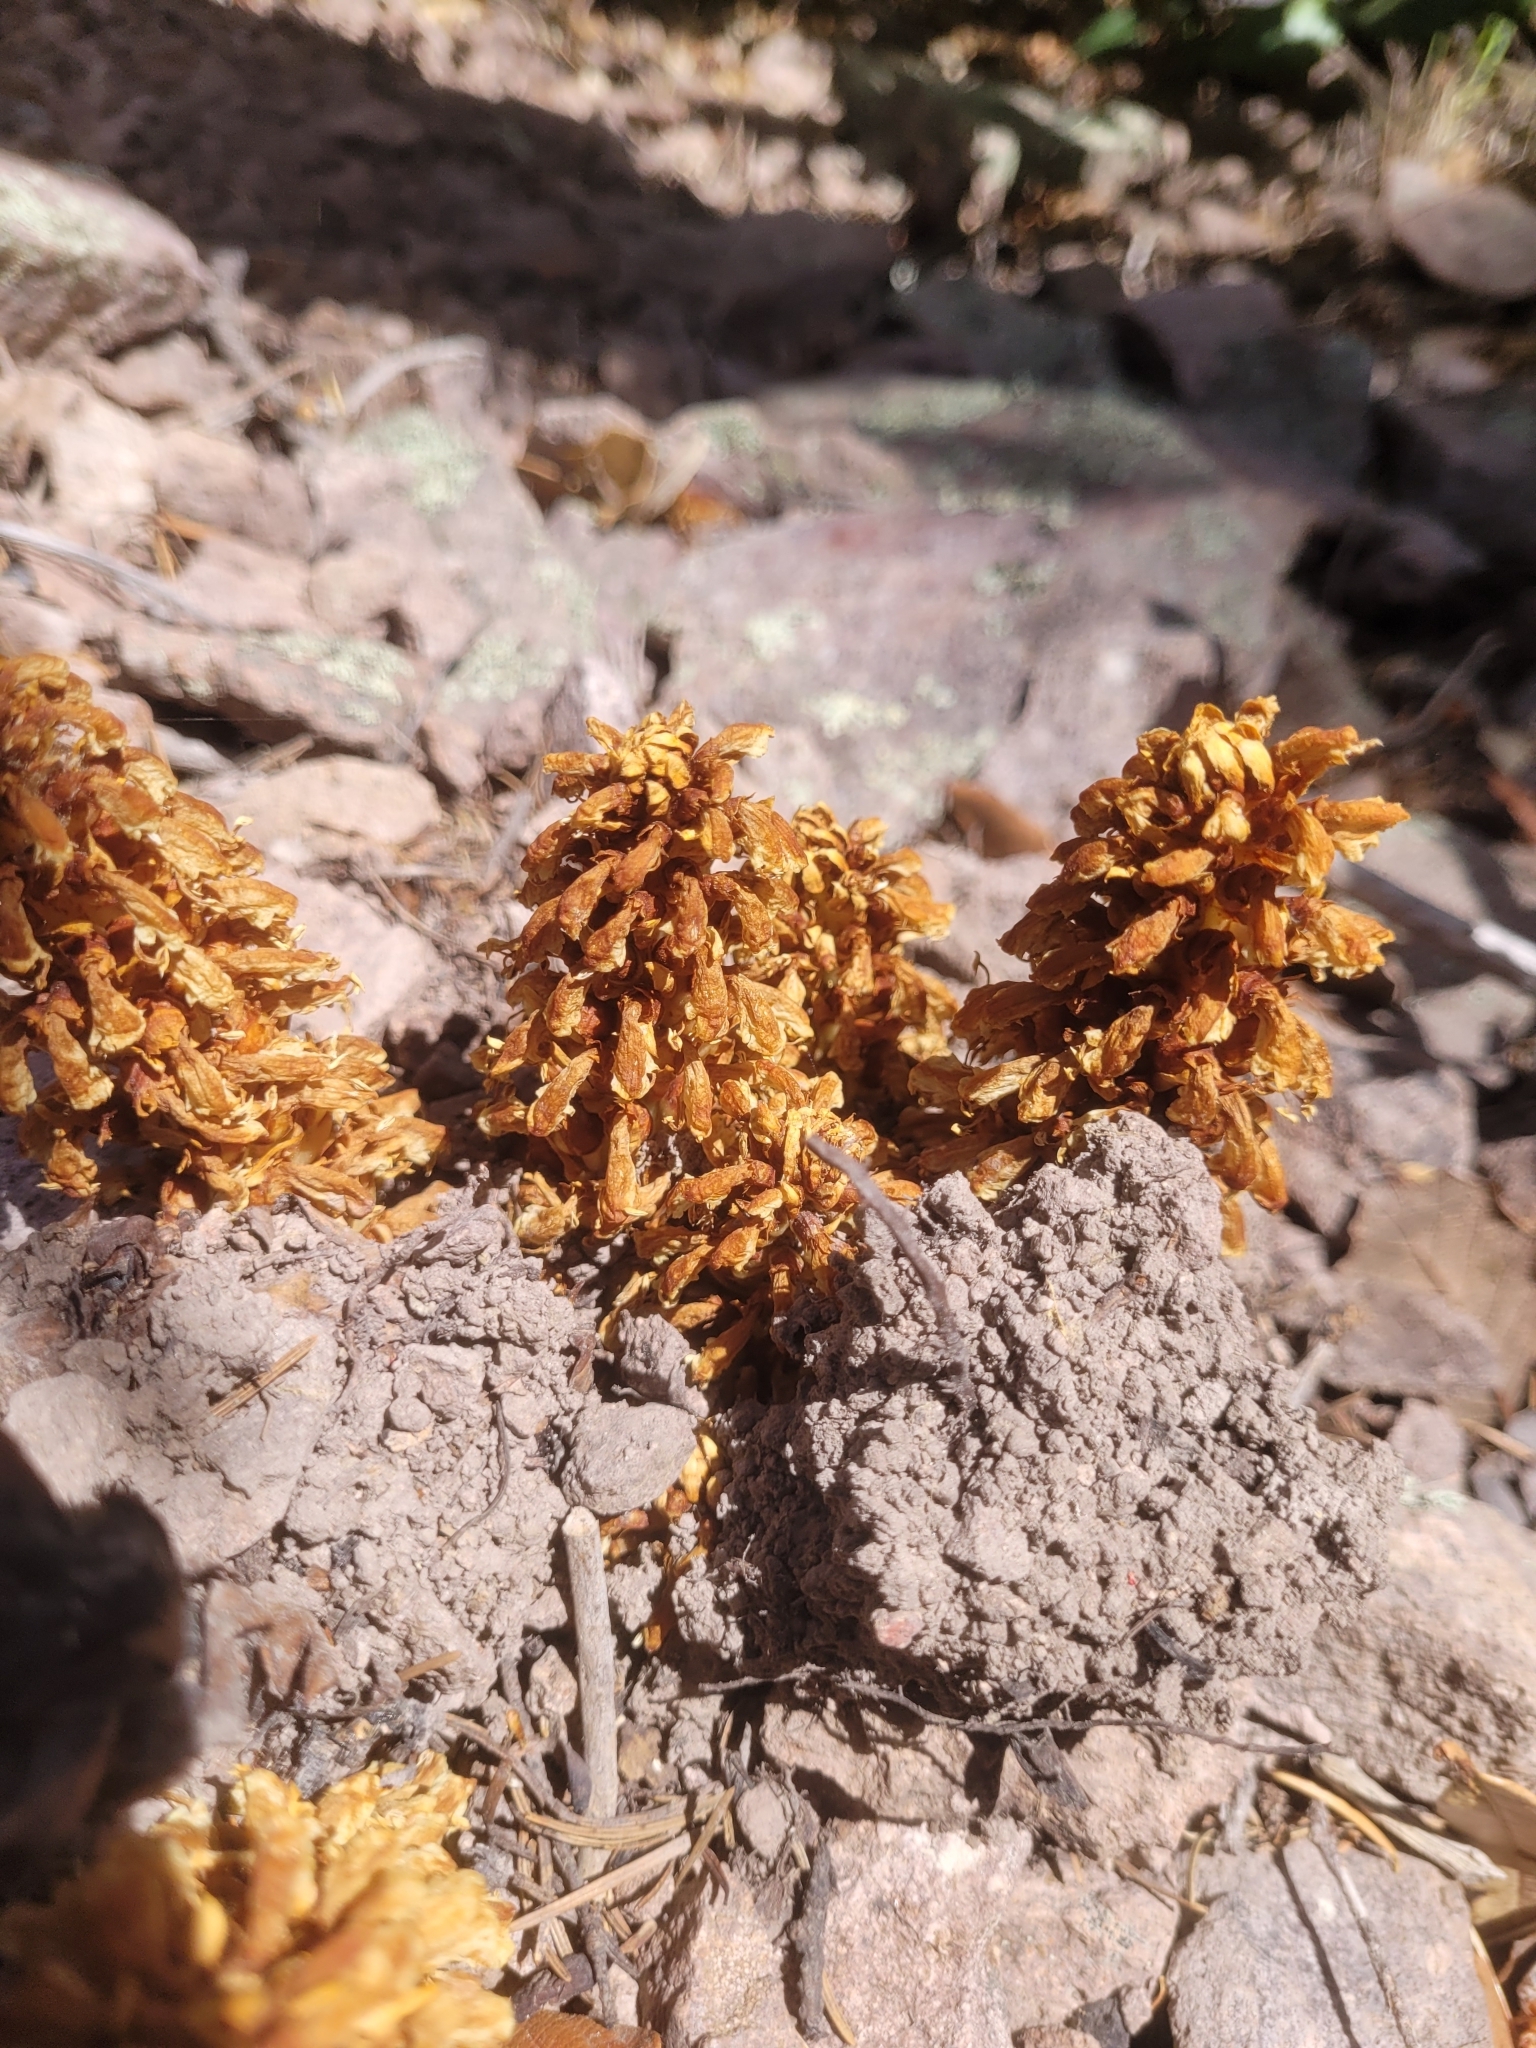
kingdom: Plantae
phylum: Tracheophyta
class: Magnoliopsida
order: Lamiales
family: Orobanchaceae
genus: Conopholis
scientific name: Conopholis alpina
